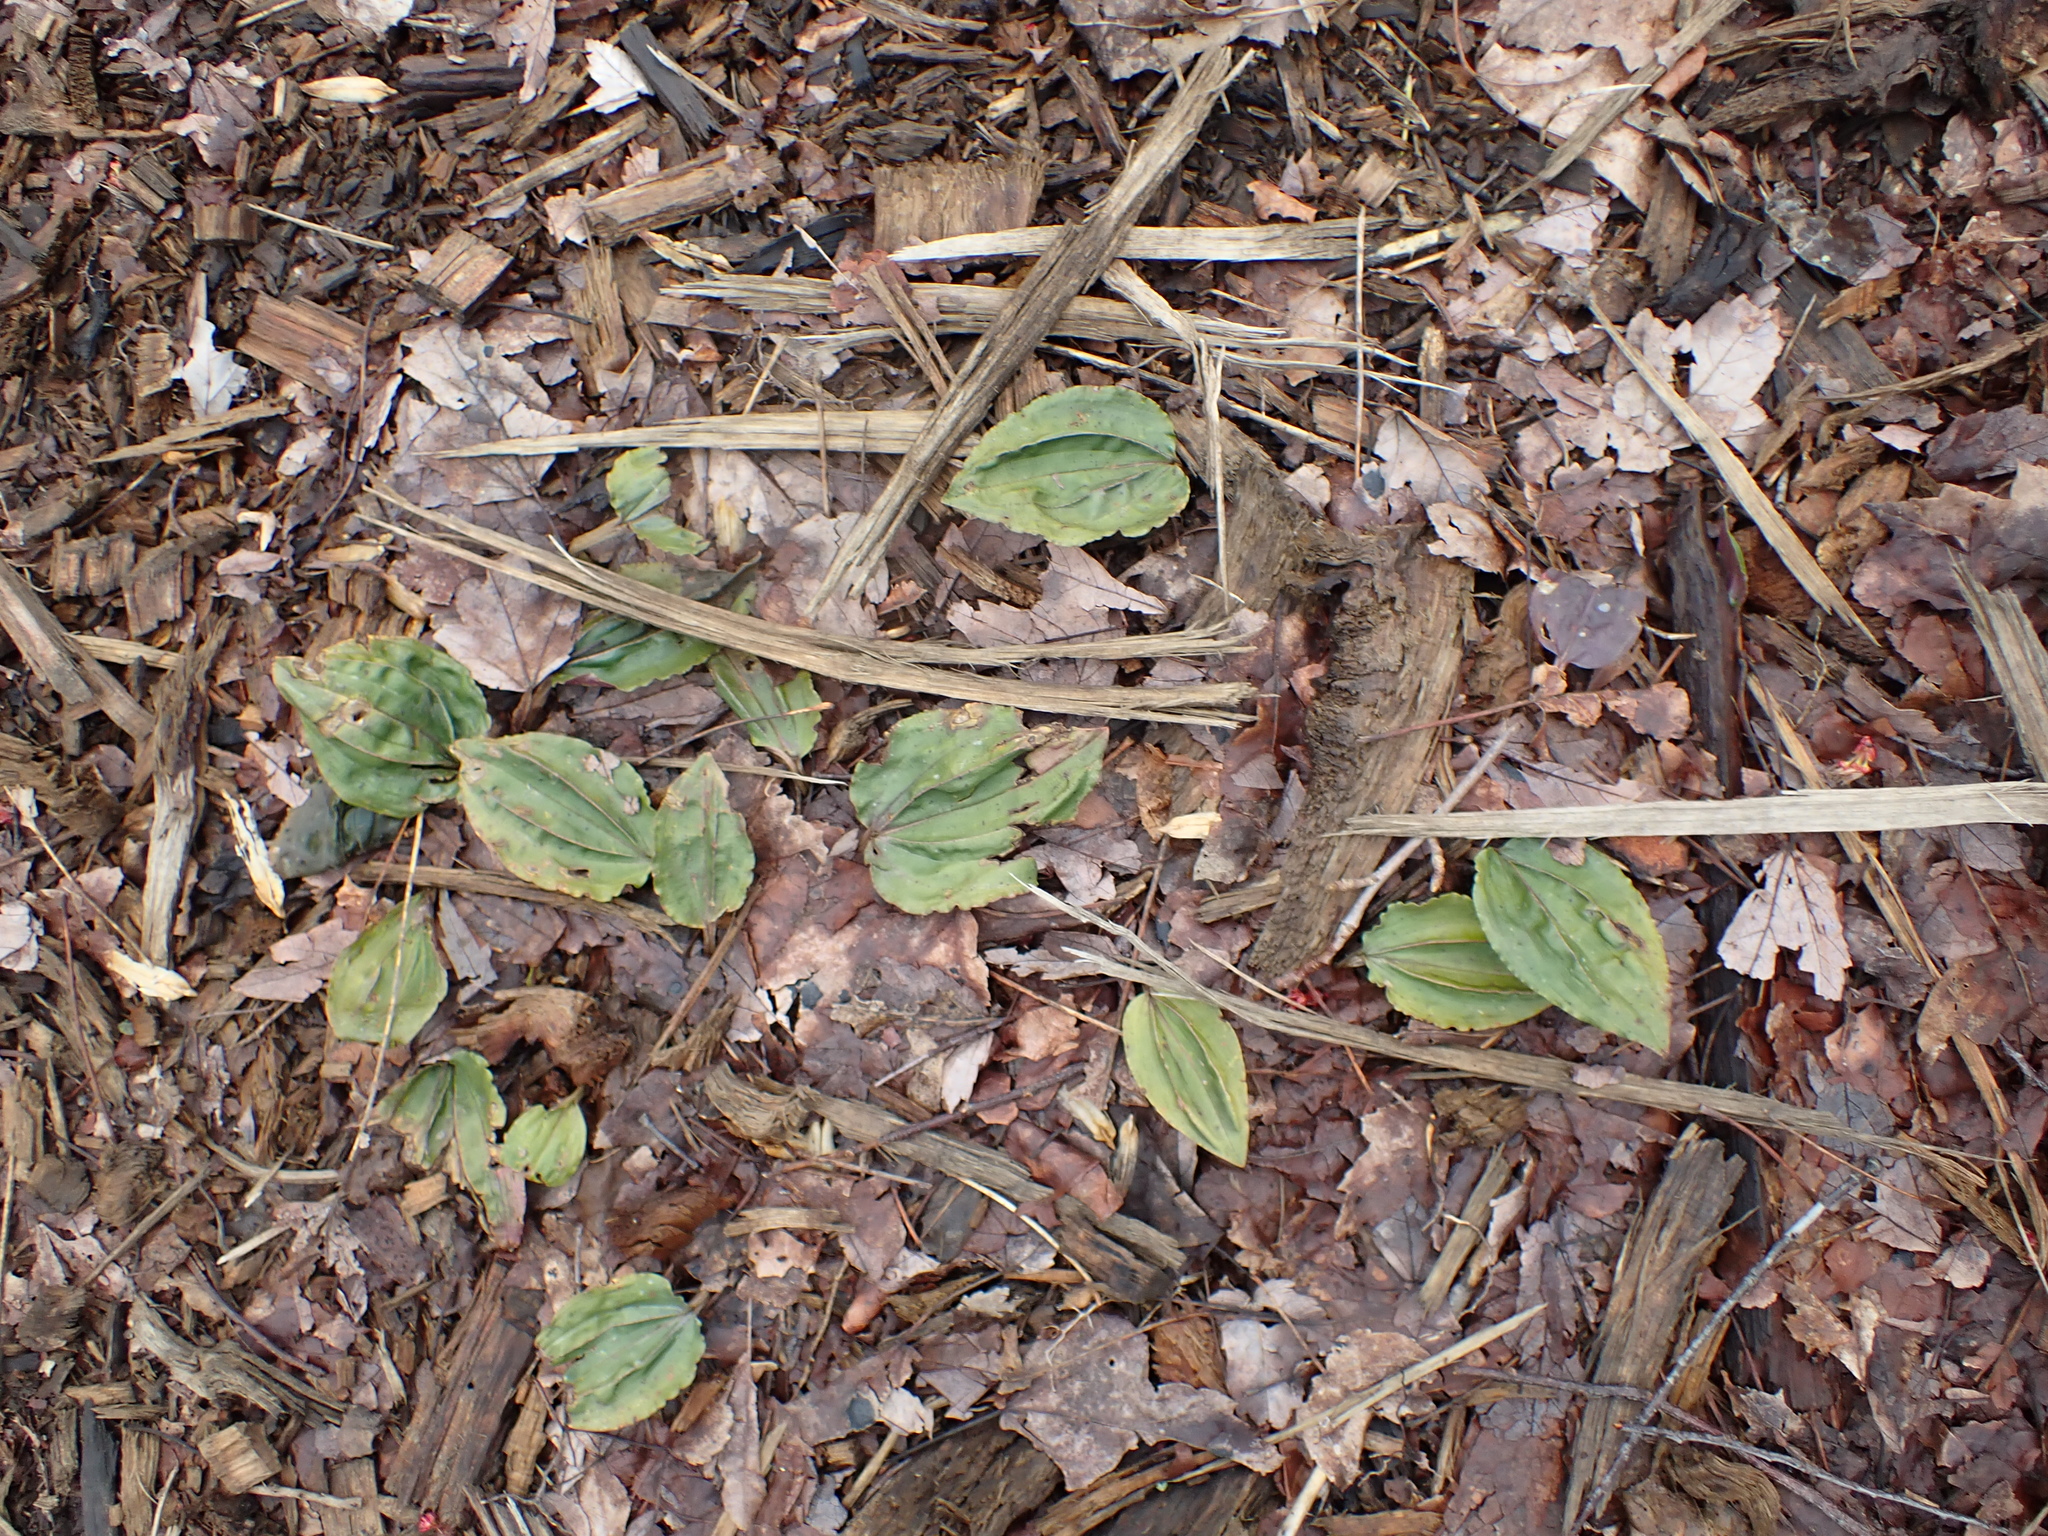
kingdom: Plantae
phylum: Tracheophyta
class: Liliopsida
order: Asparagales
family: Orchidaceae
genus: Tipularia
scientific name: Tipularia discolor
